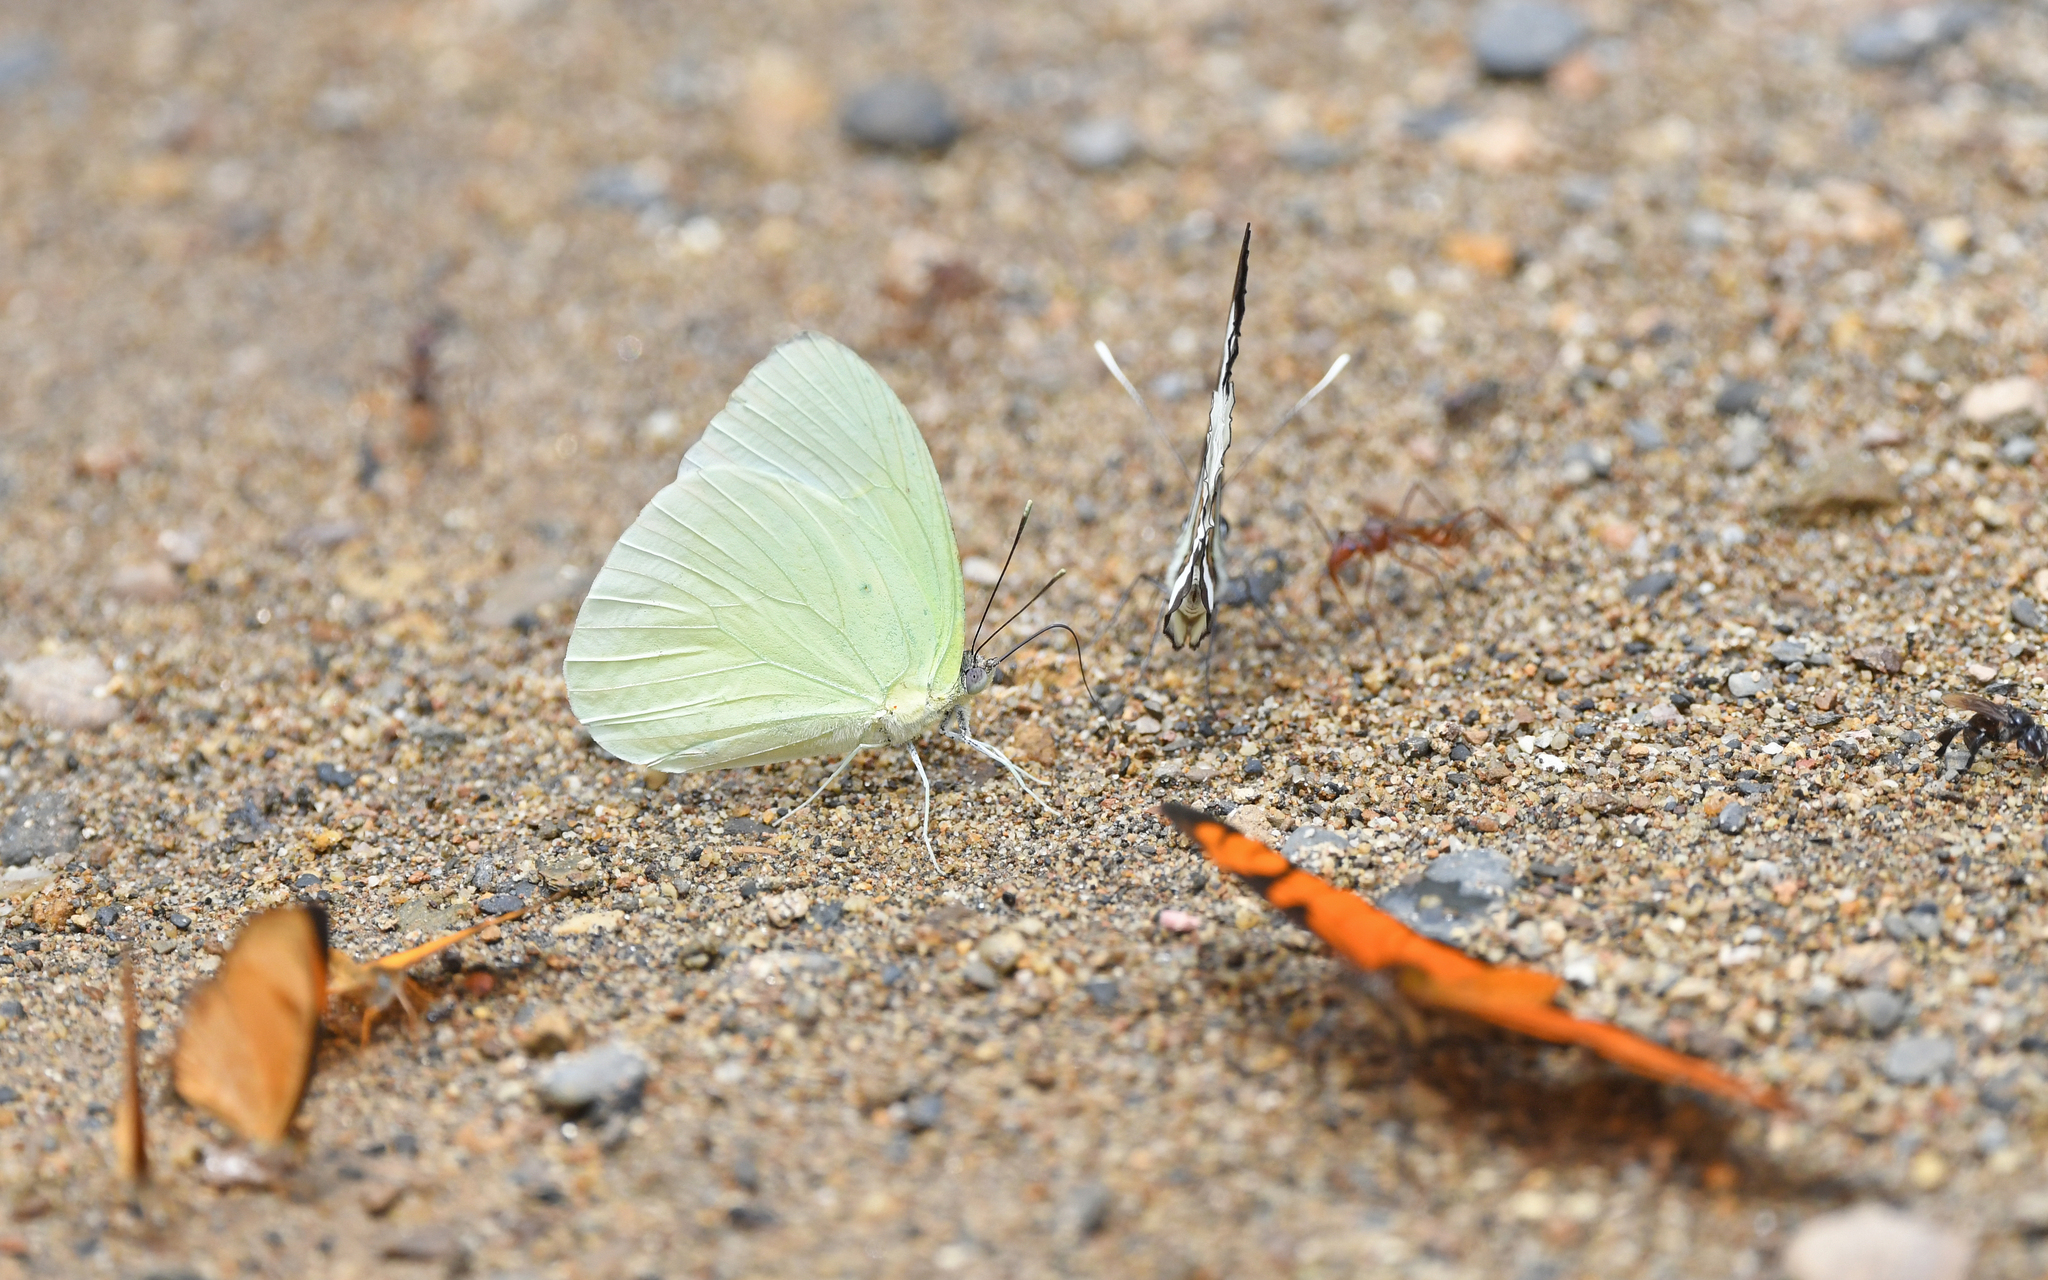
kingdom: Animalia
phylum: Arthropoda
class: Insecta
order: Lepidoptera
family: Pieridae
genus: Aphrissa
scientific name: Aphrissa statira
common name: Statira sulphur
